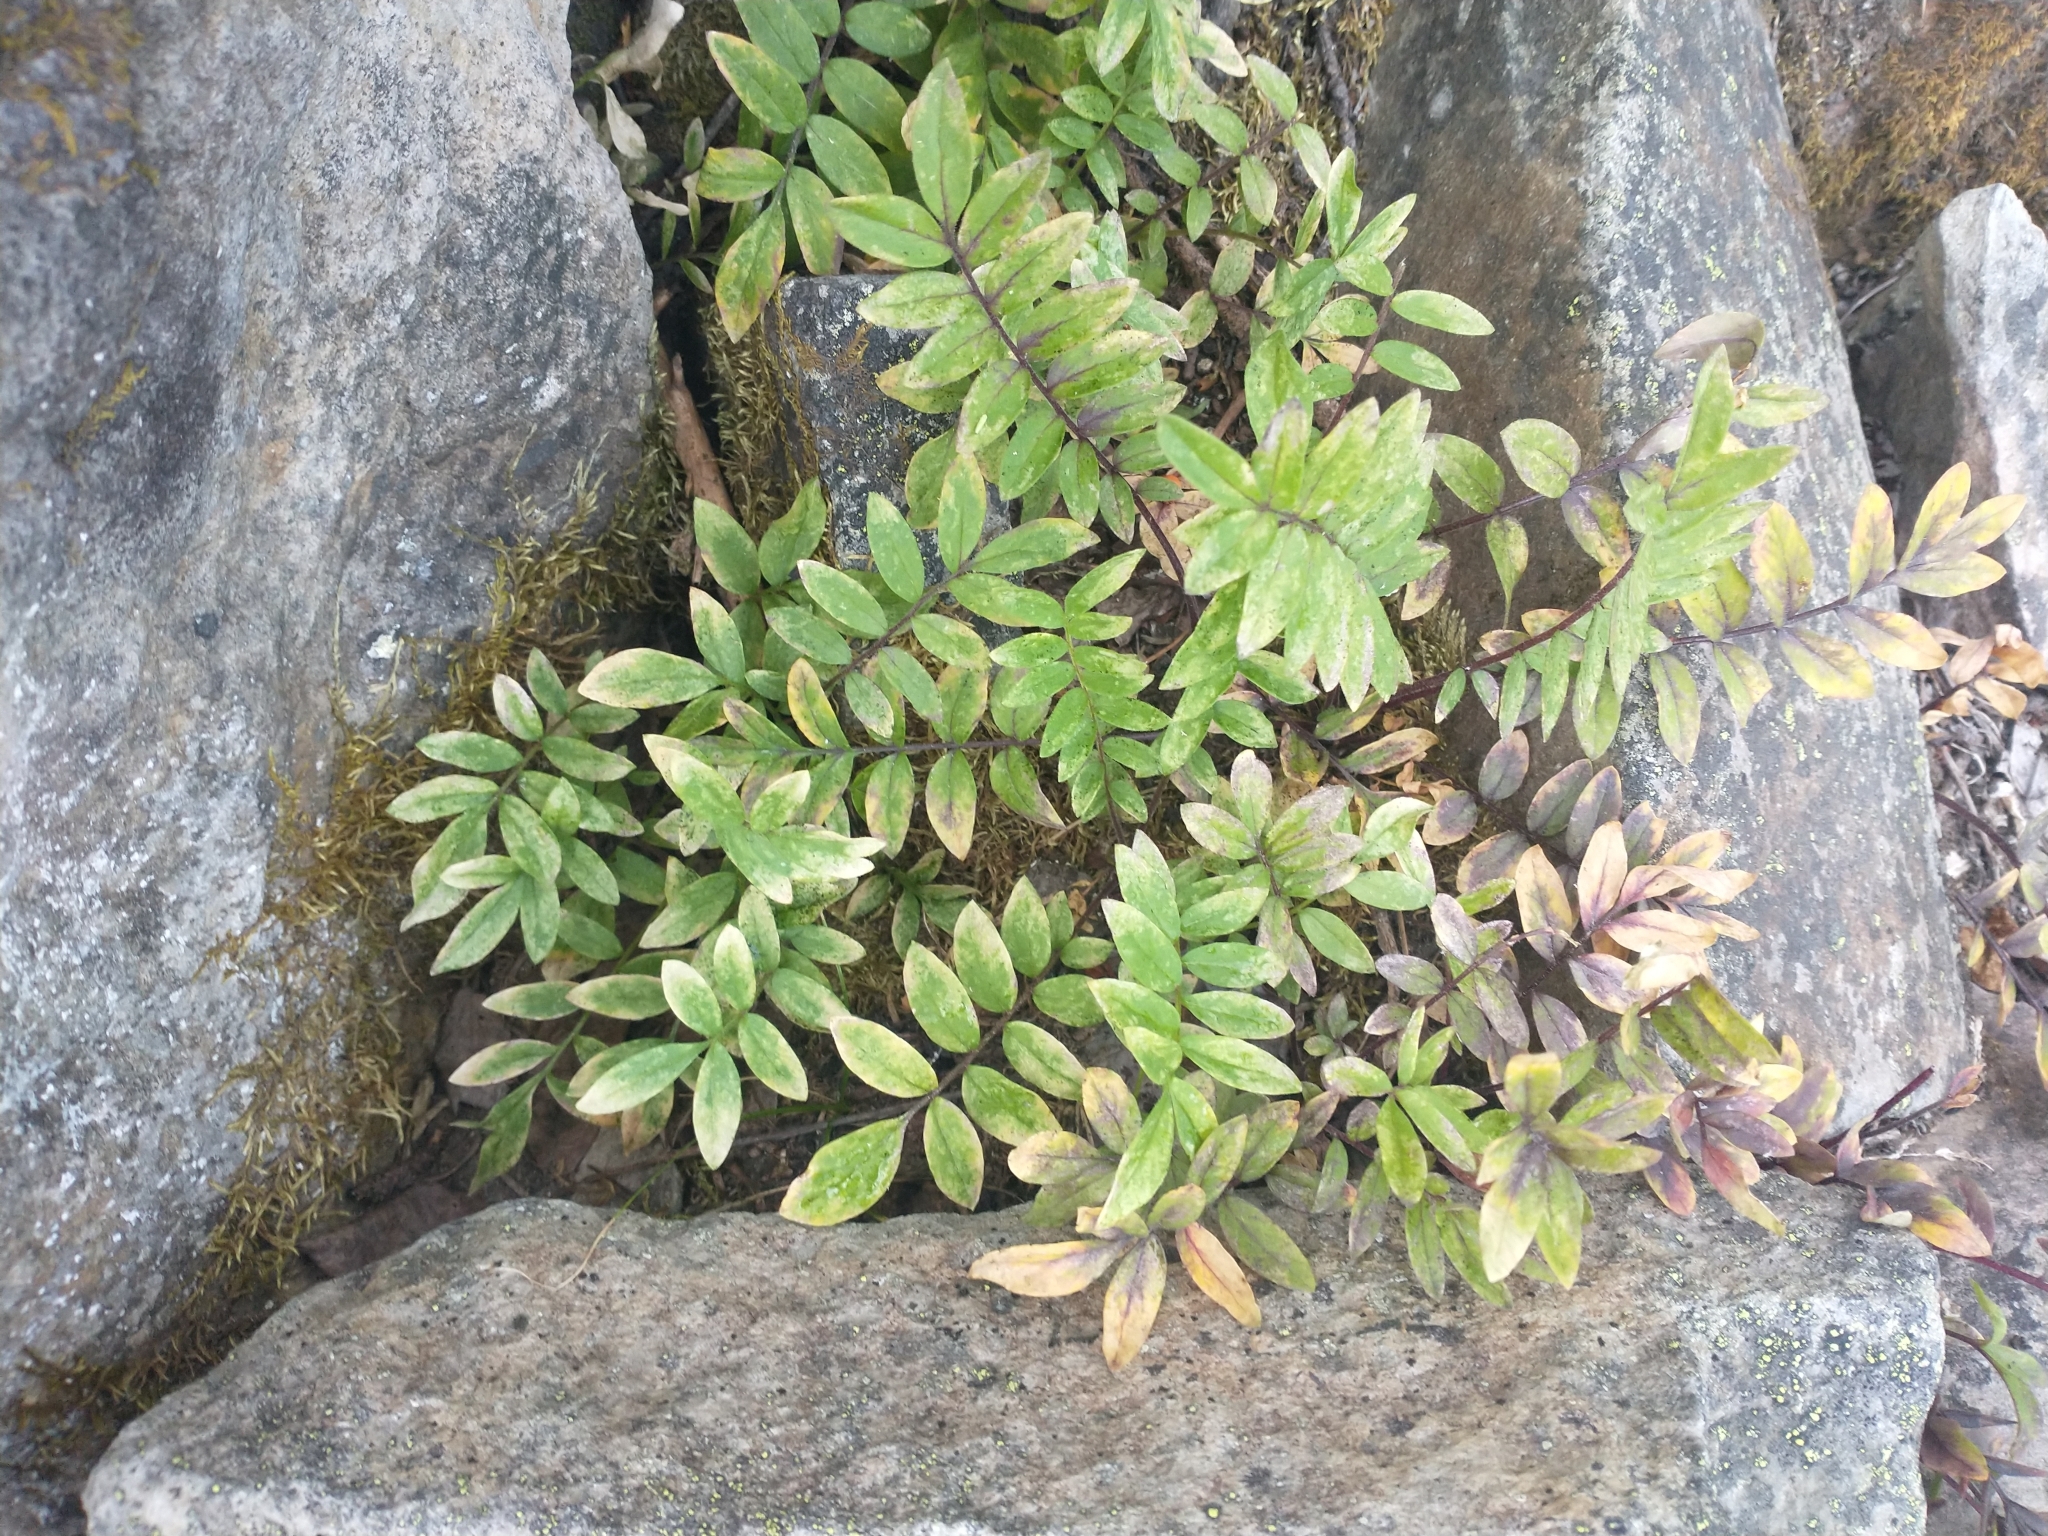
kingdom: Plantae
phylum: Tracheophyta
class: Magnoliopsida
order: Ericales
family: Polemoniaceae
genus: Polemonium
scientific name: Polemonium californicum
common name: California jacob's ladder
